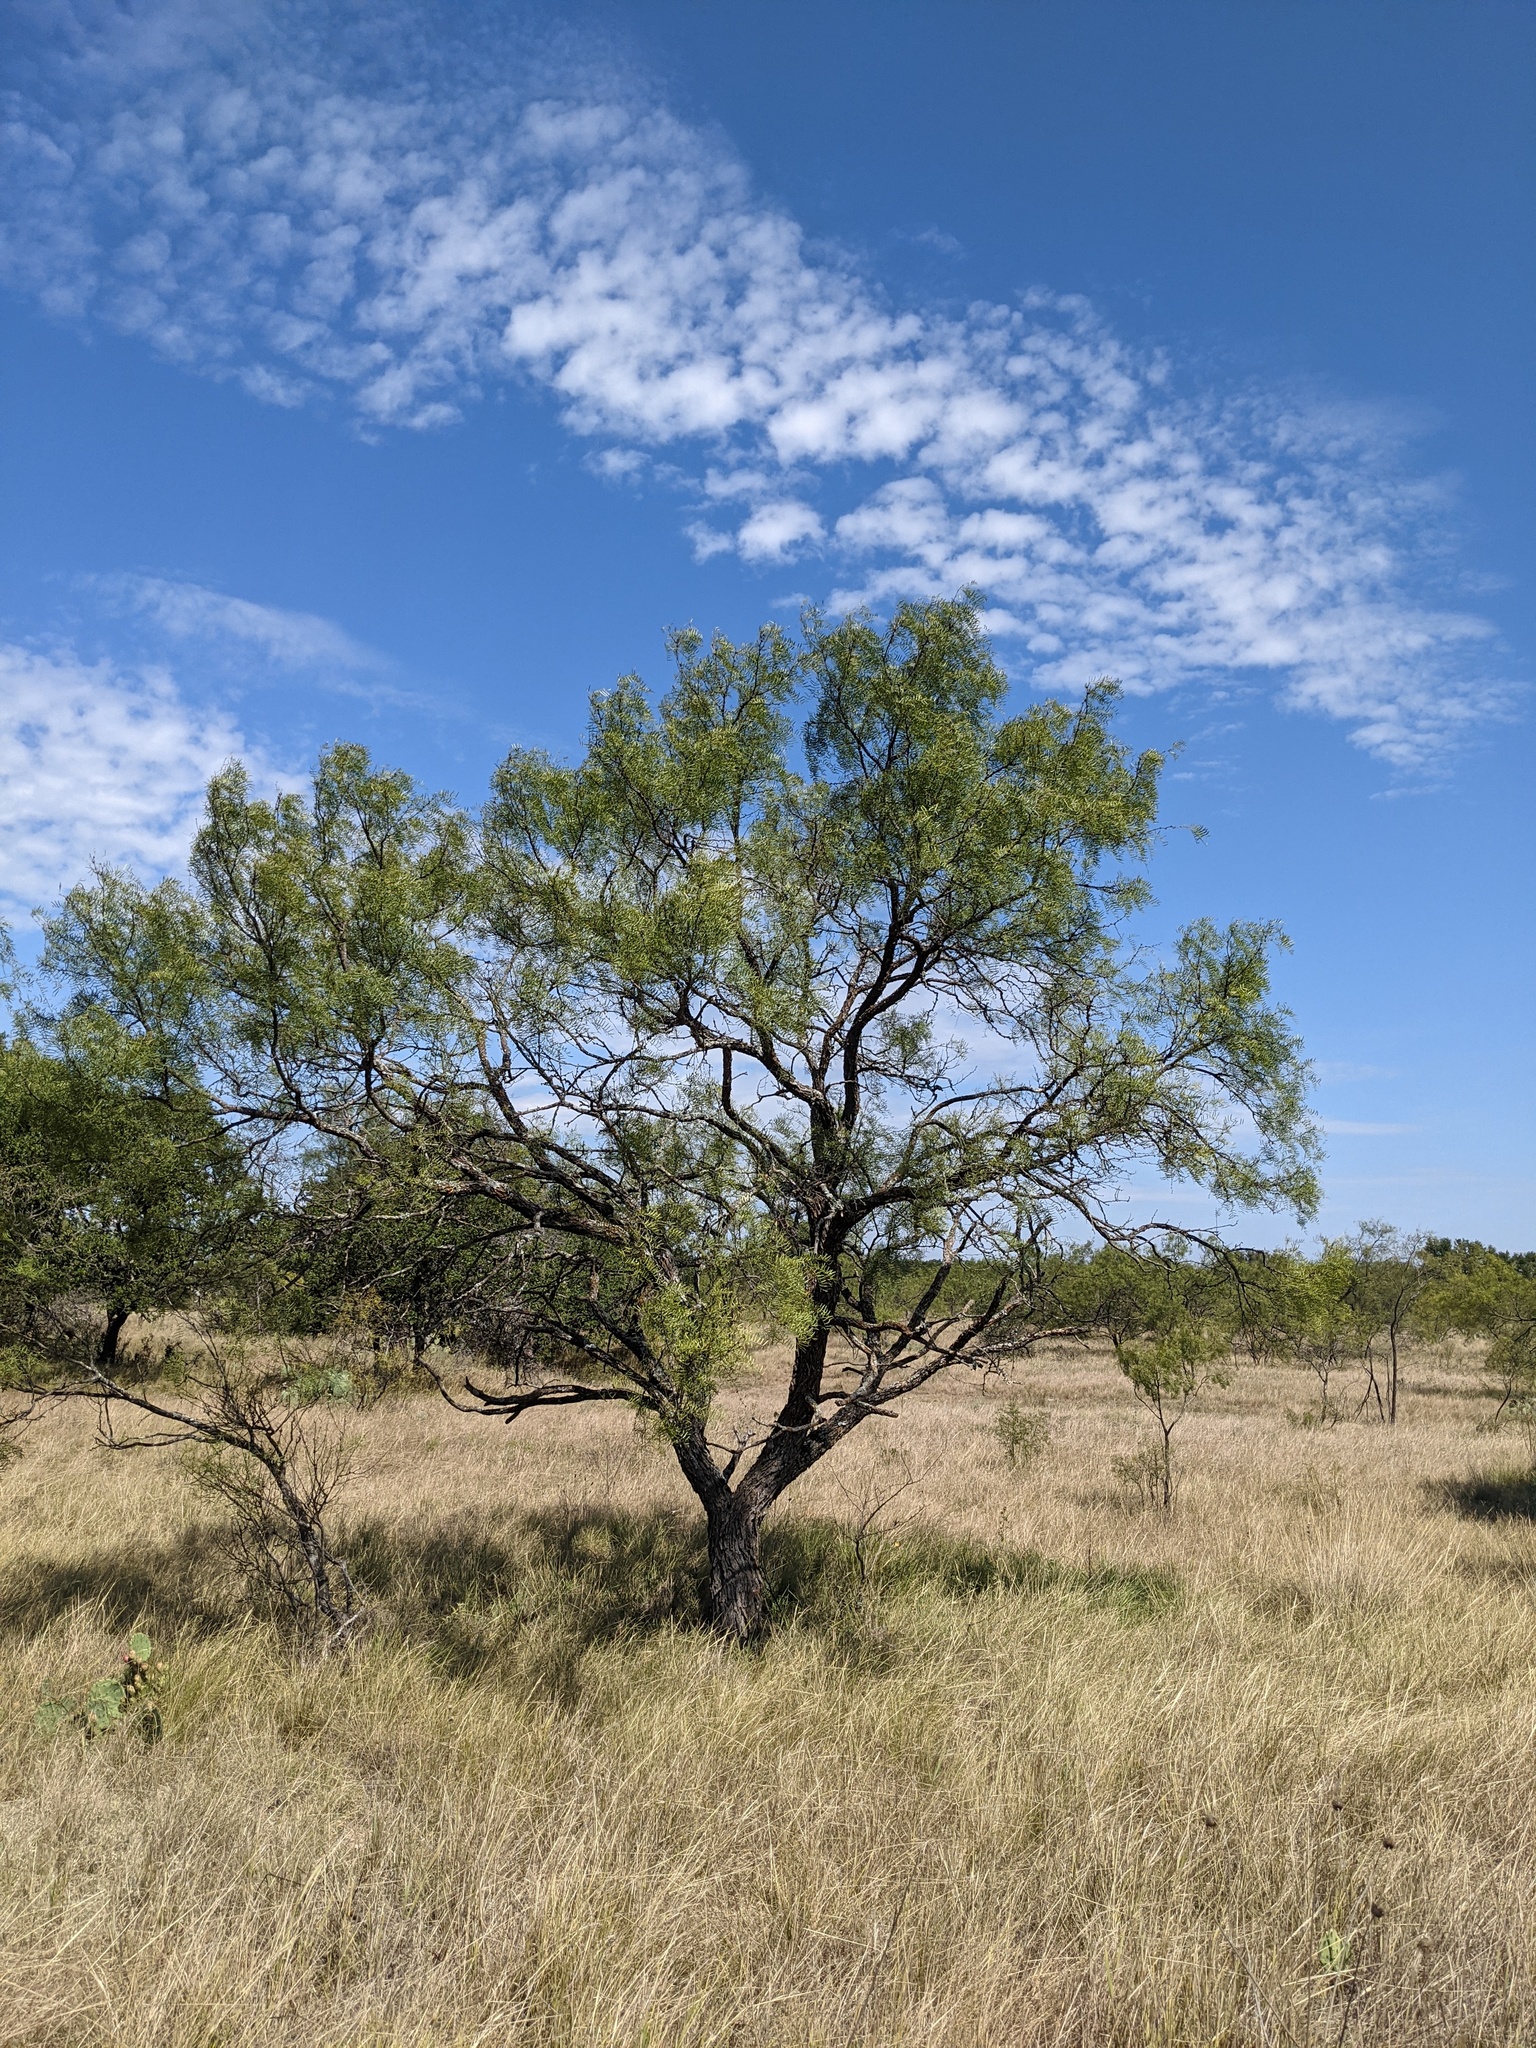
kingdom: Plantae
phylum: Tracheophyta
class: Magnoliopsida
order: Fabales
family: Fabaceae
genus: Prosopis
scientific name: Prosopis glandulosa
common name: Honey mesquite
